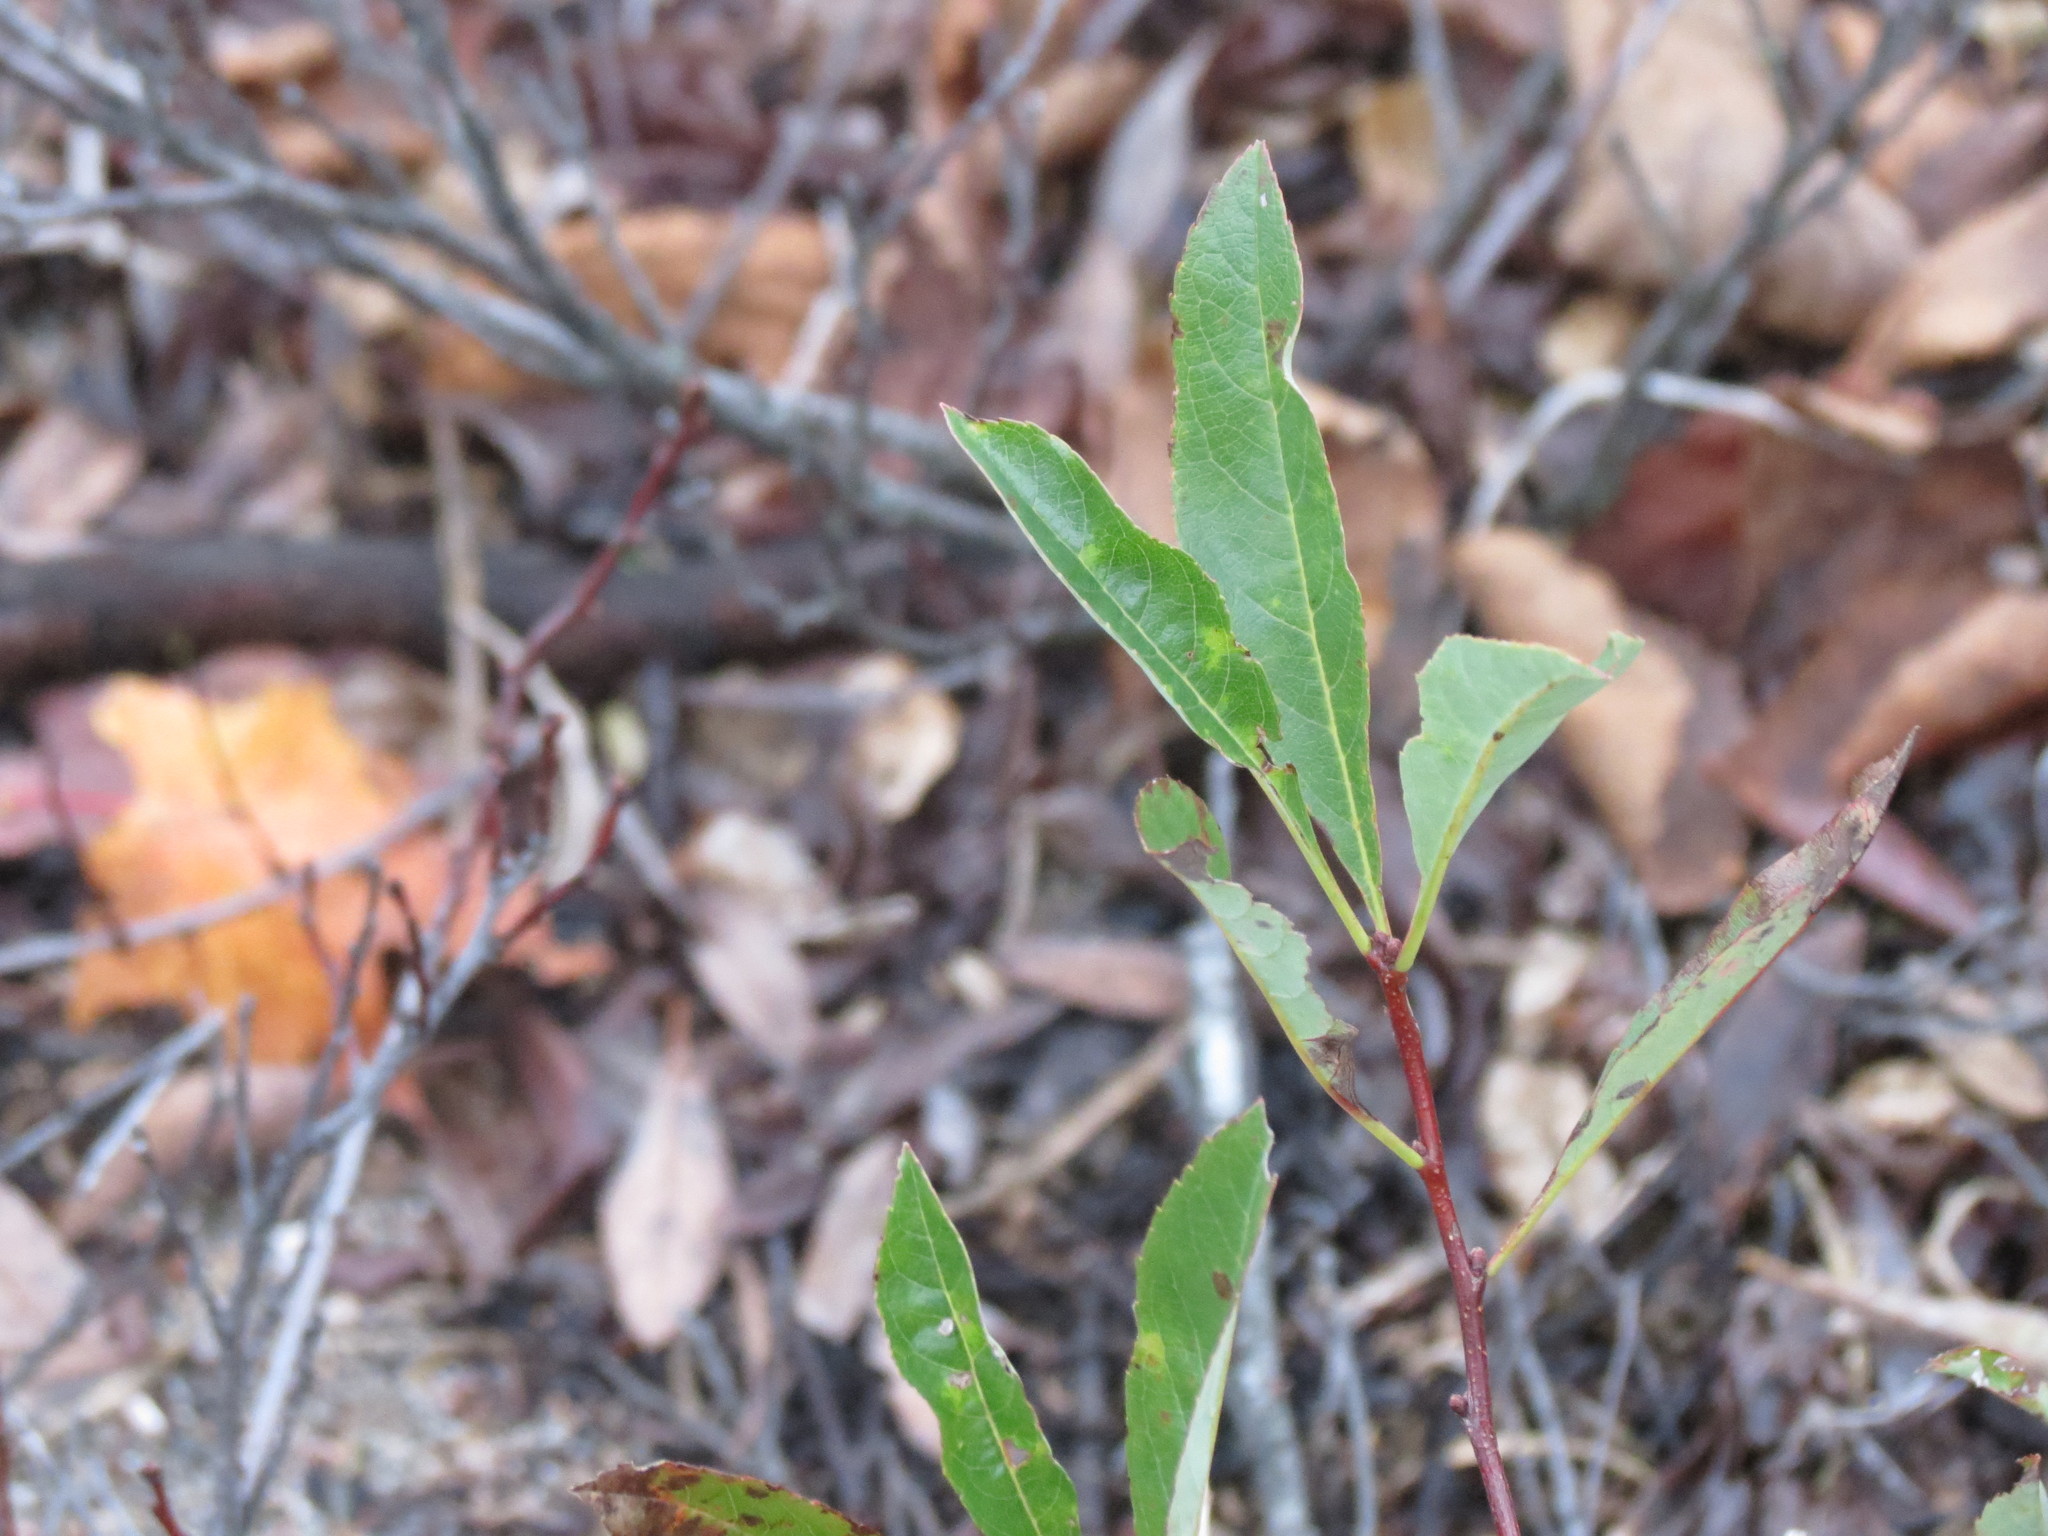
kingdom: Plantae
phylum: Tracheophyta
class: Magnoliopsida
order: Rosales
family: Rosaceae
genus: Prunus
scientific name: Prunus pumila
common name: Dwarf cherry
